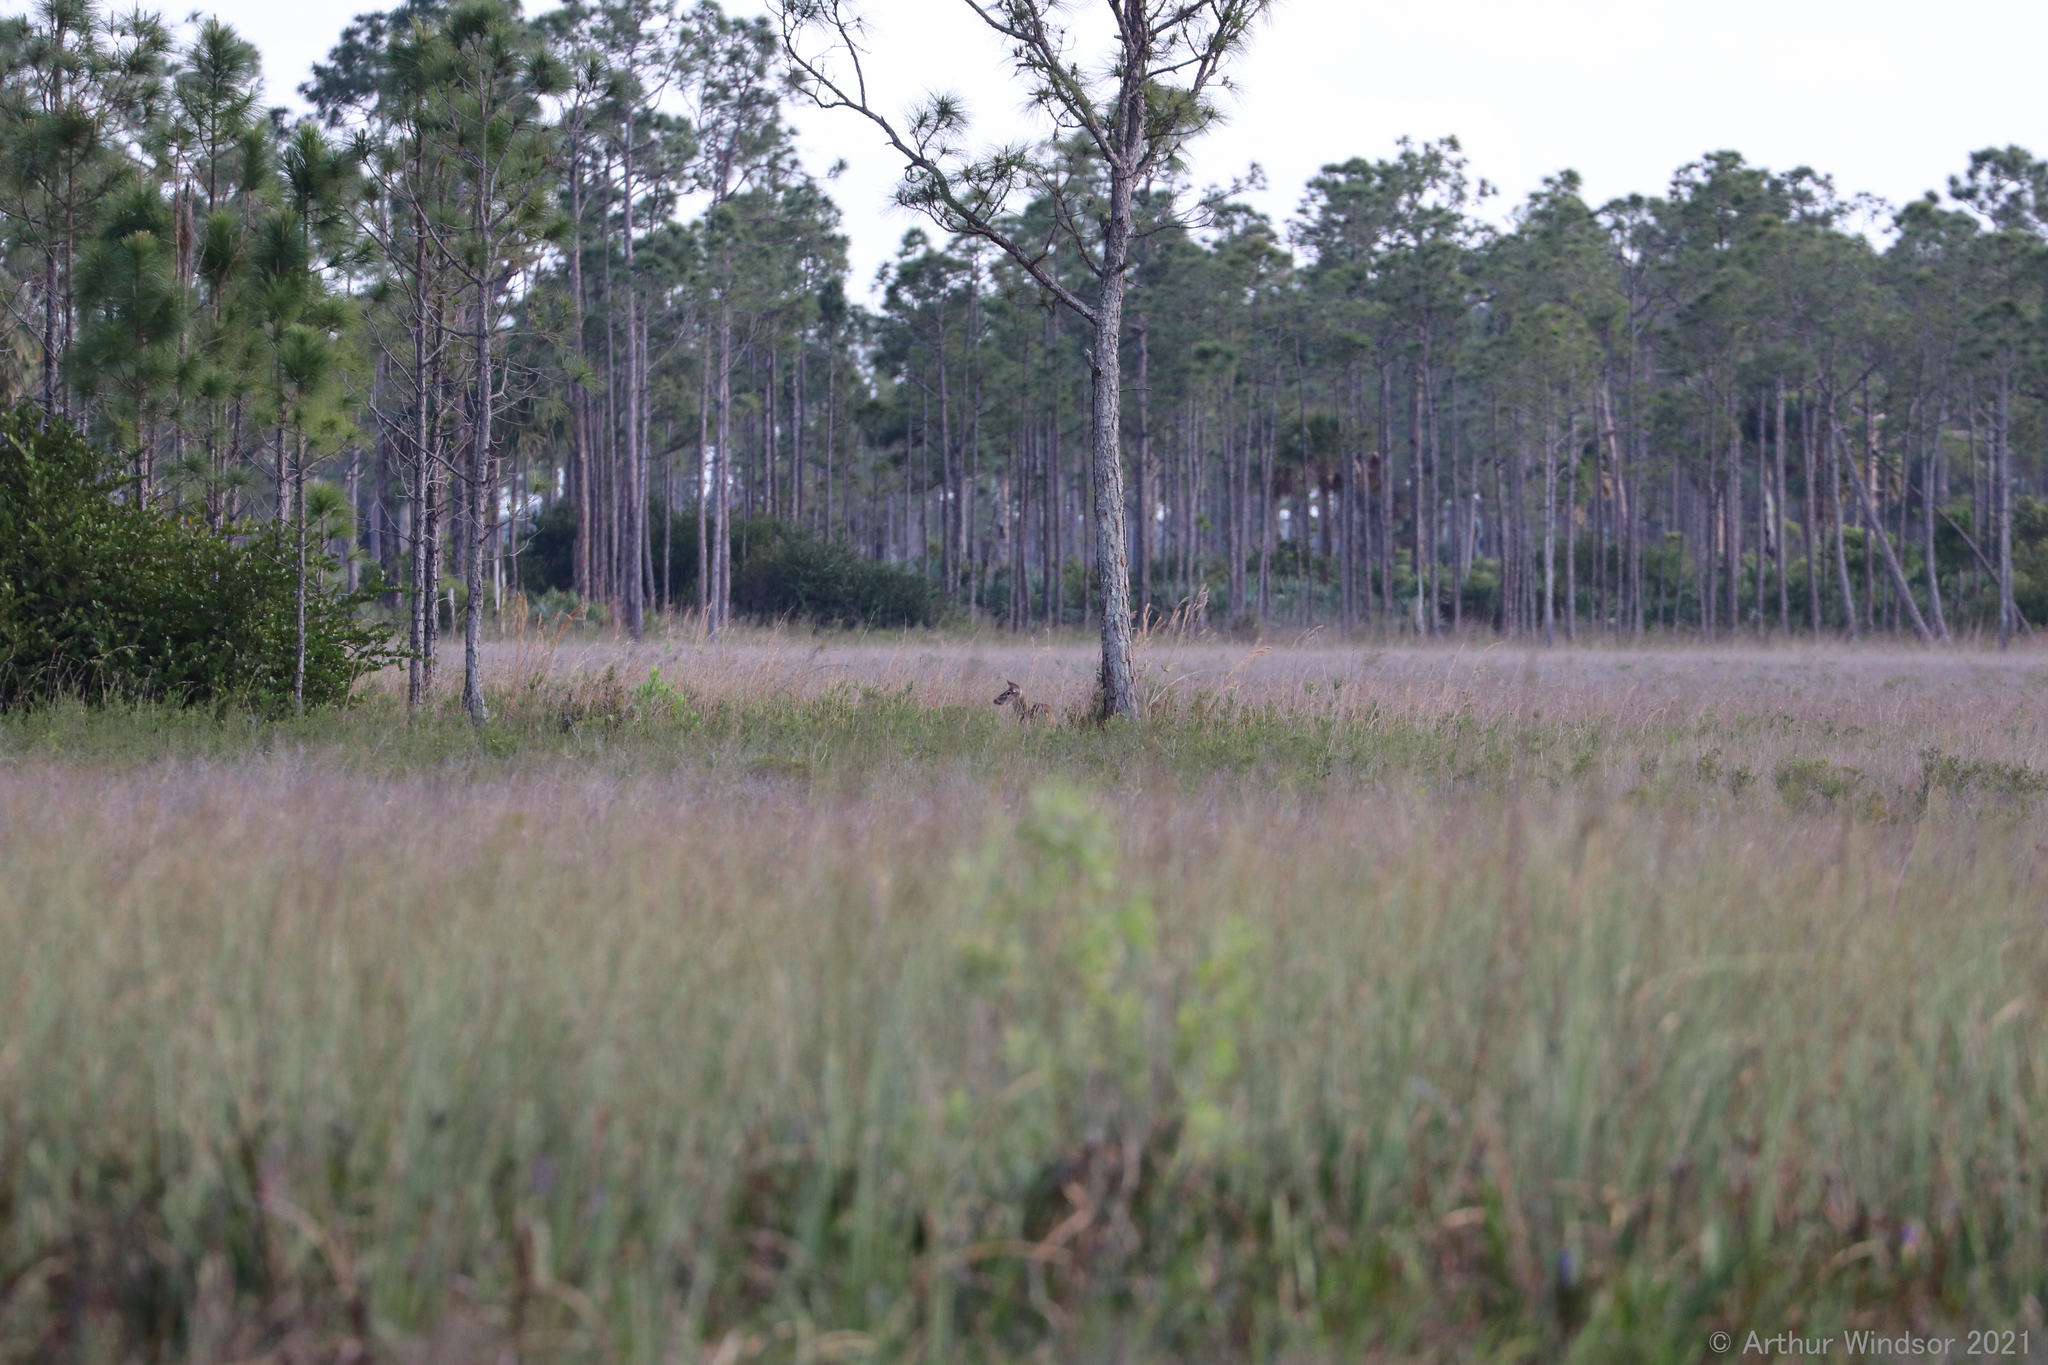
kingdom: Animalia
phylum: Chordata
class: Mammalia
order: Artiodactyla
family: Cervidae
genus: Odocoileus
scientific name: Odocoileus virginianus
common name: White-tailed deer
